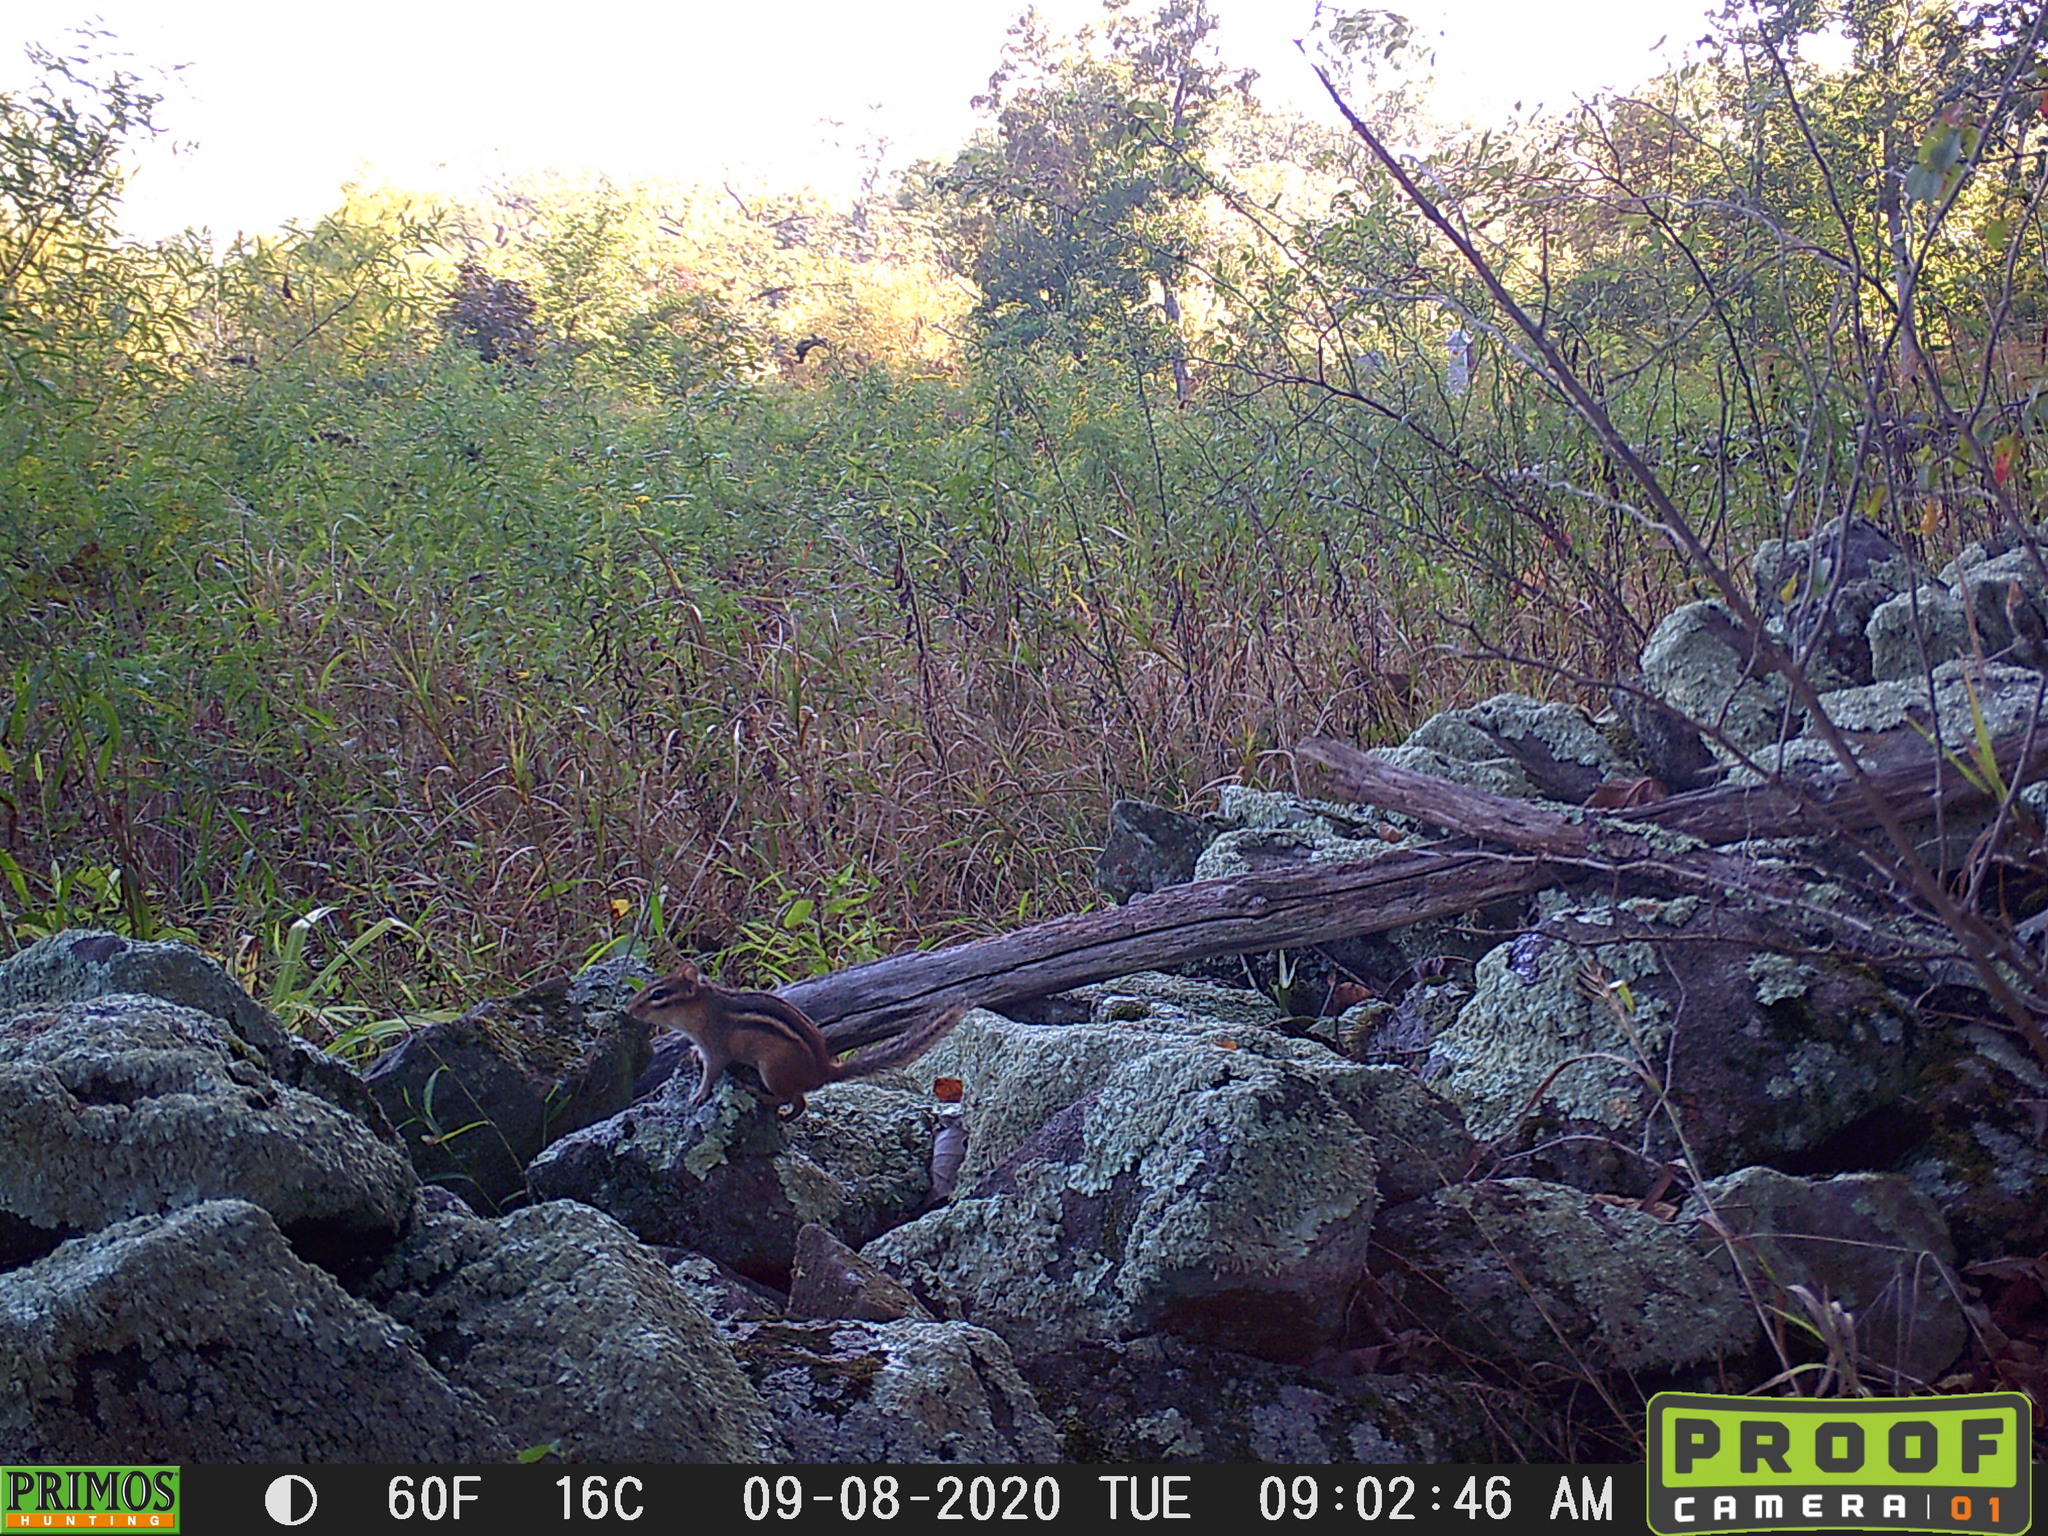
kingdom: Animalia
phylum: Chordata
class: Mammalia
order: Rodentia
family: Sciuridae
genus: Tamias
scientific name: Tamias striatus
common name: Eastern chipmunk
